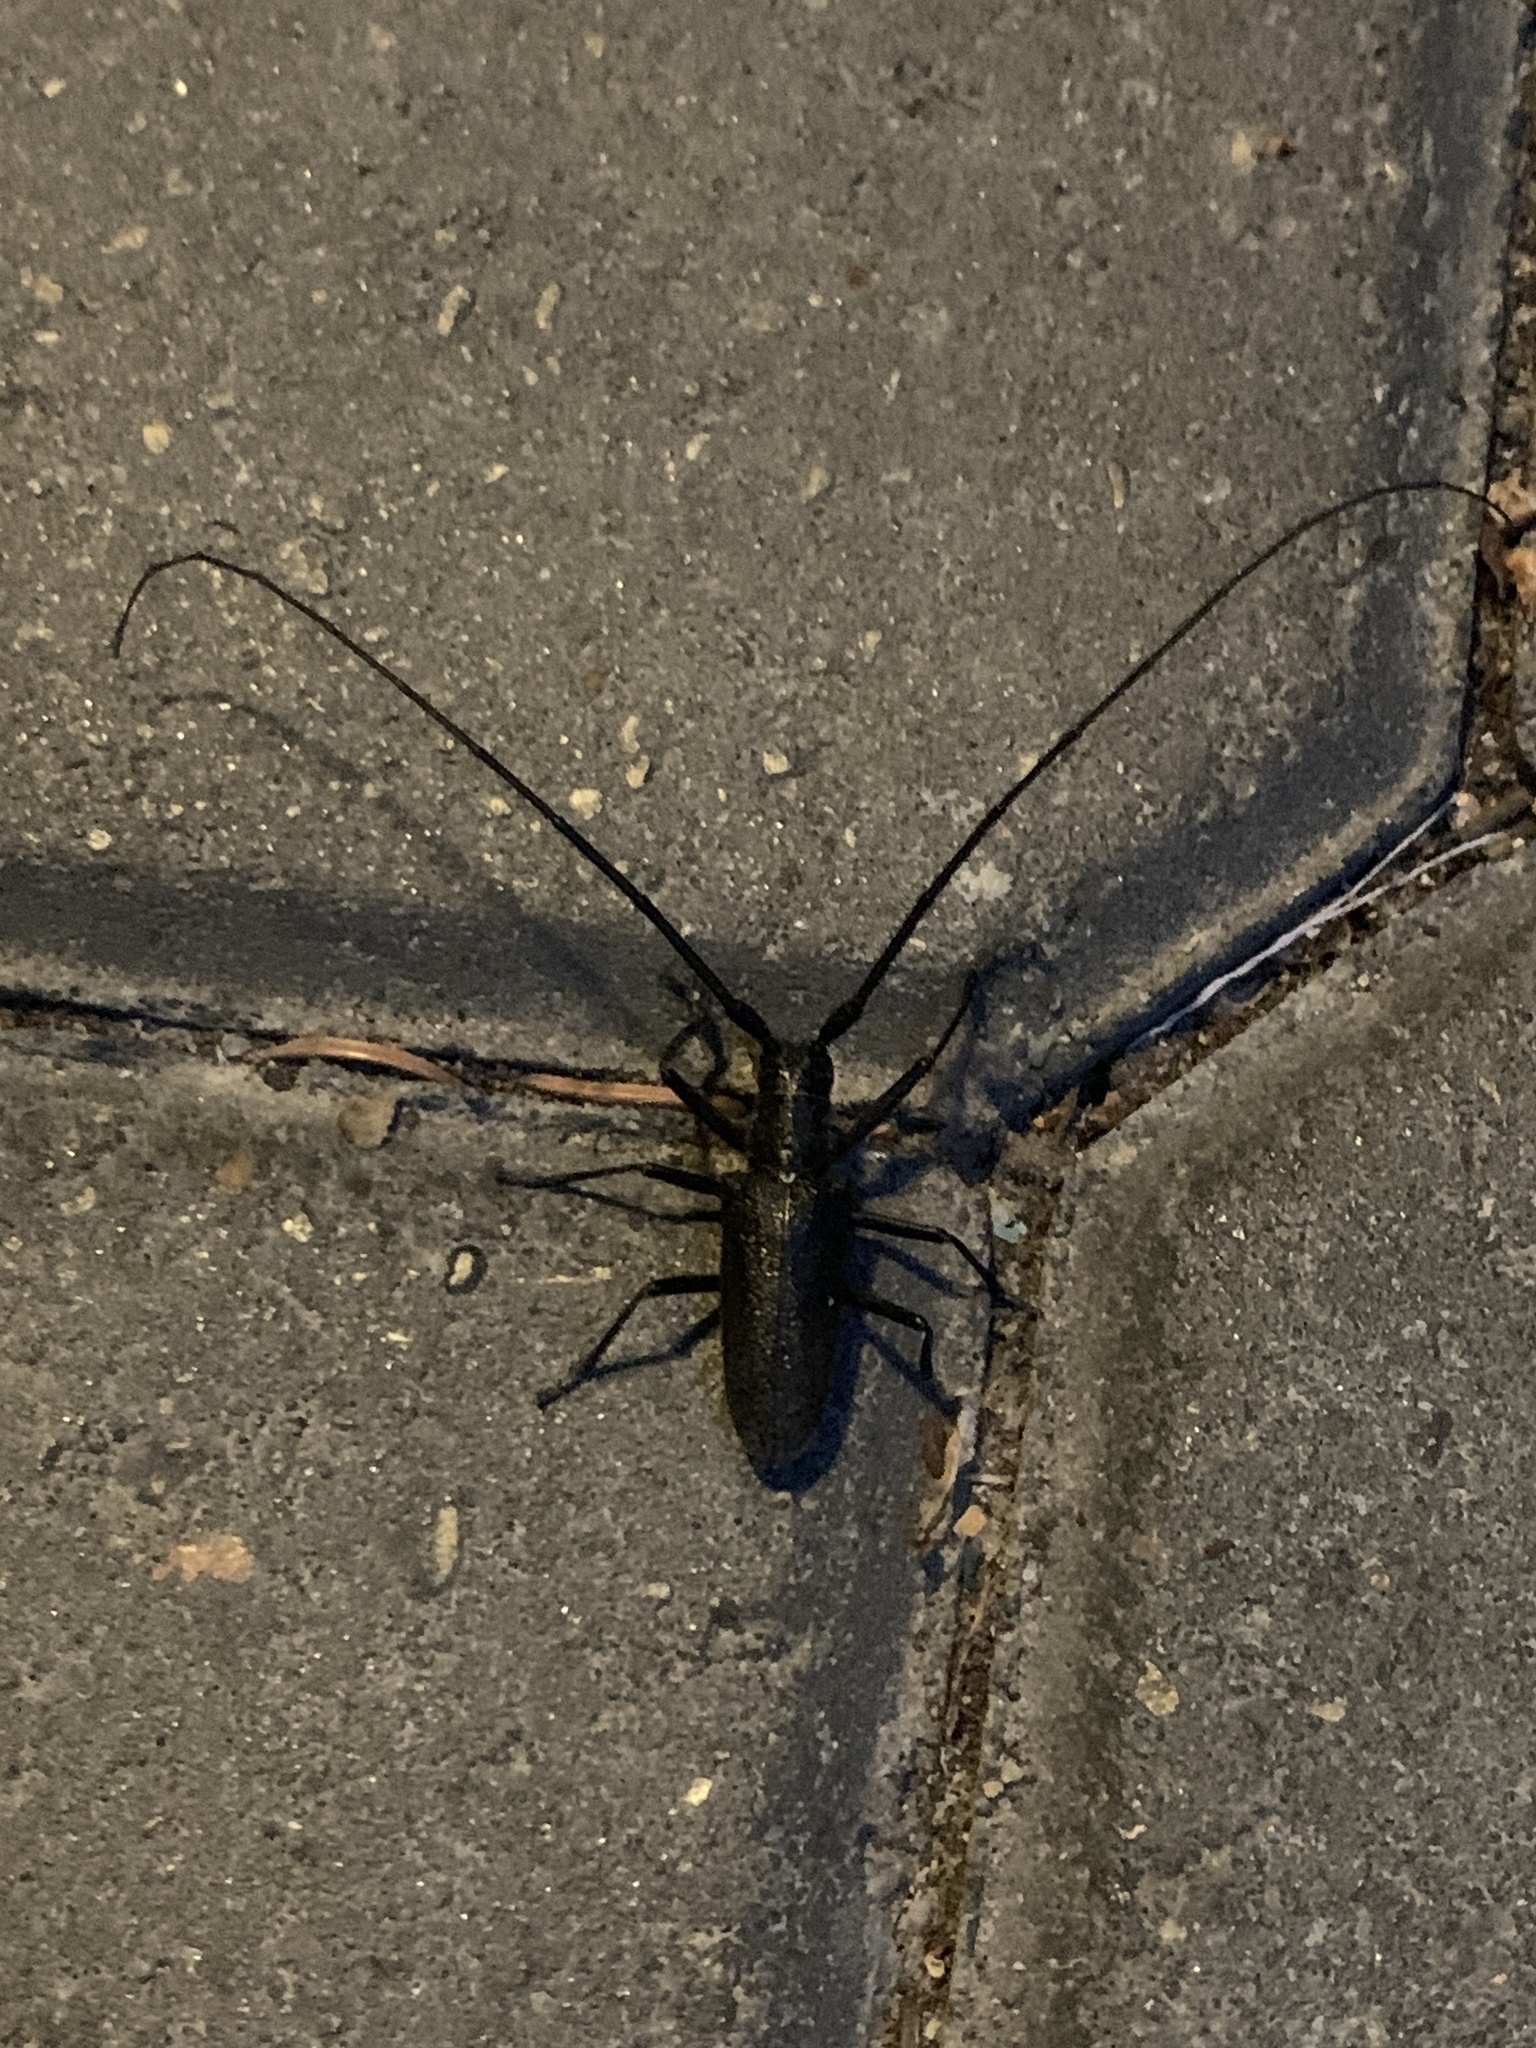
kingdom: Animalia
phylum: Arthropoda
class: Insecta
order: Coleoptera
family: Cerambycidae
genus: Monochamus
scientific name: Monochamus scutellatus
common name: White-spotted sawyer beetle
